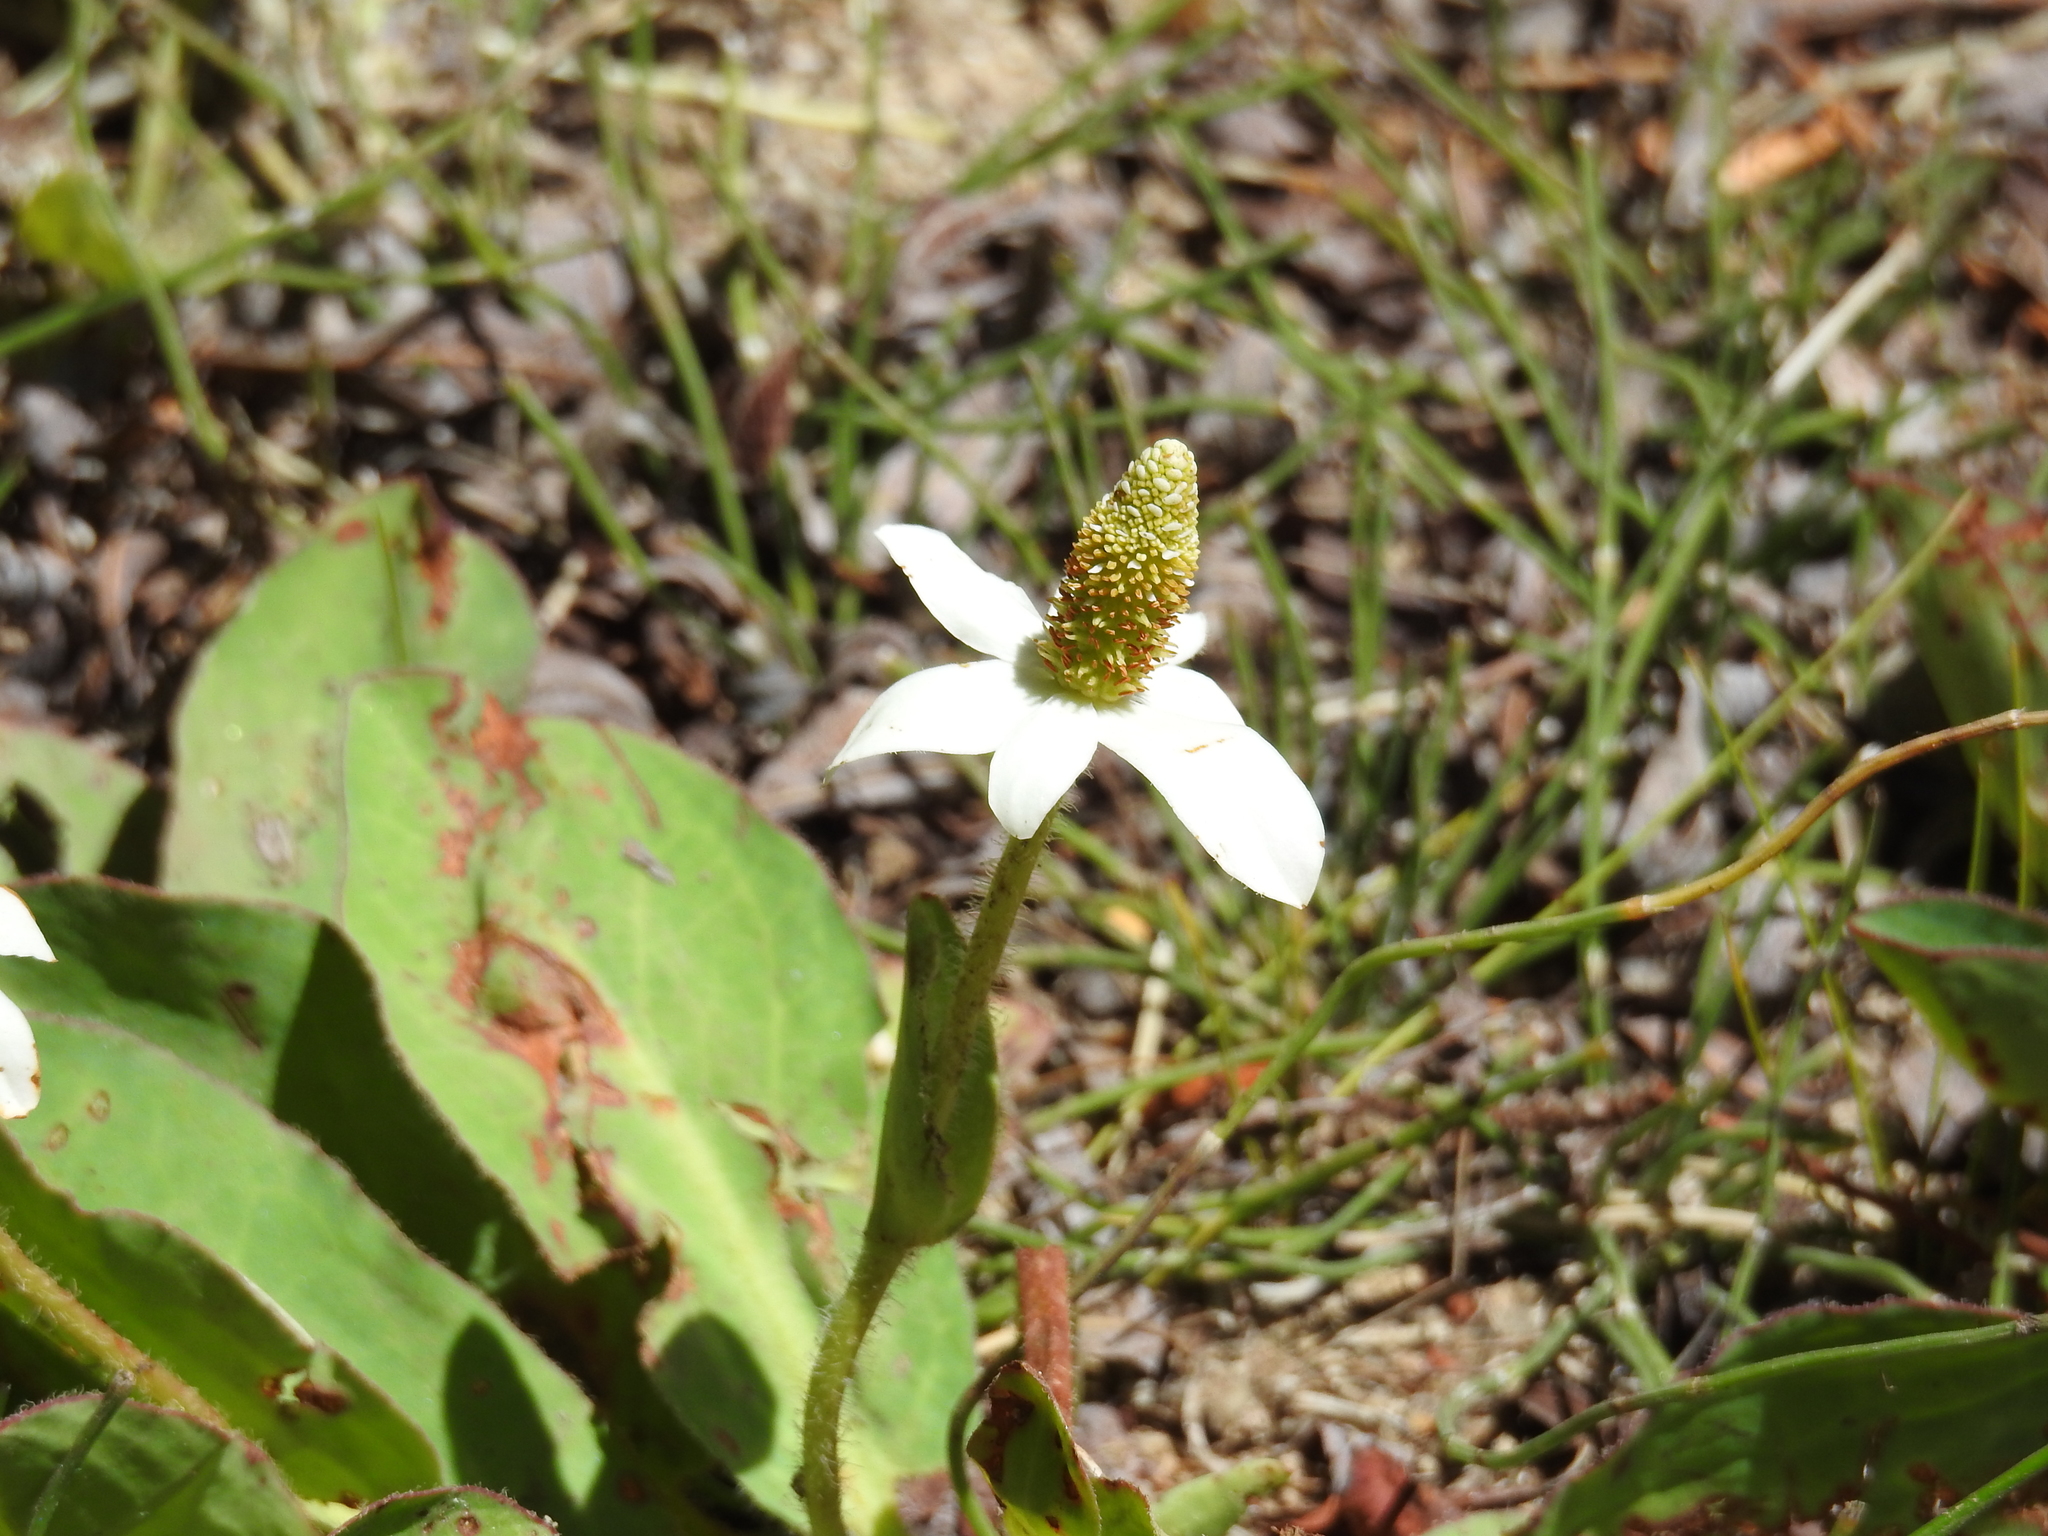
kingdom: Plantae
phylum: Tracheophyta
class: Magnoliopsida
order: Piperales
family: Saururaceae
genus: Anemopsis
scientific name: Anemopsis californica
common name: Apache-beads
